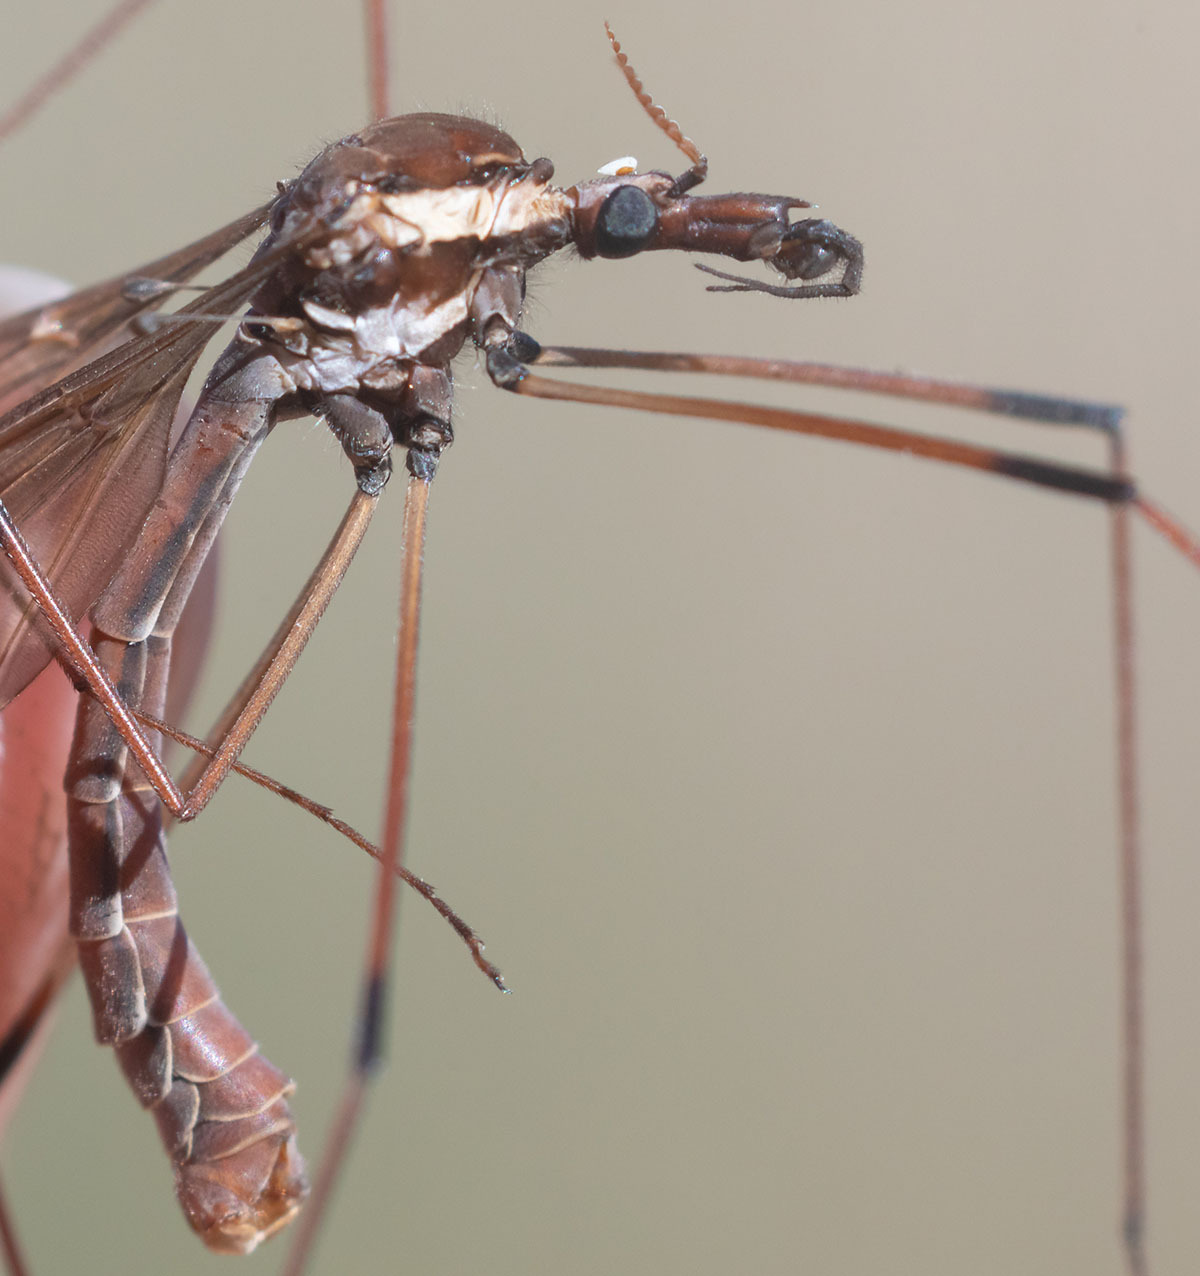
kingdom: Animalia
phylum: Arthropoda
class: Insecta
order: Diptera
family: Tipulidae
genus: Holorusia
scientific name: Holorusia hespera
